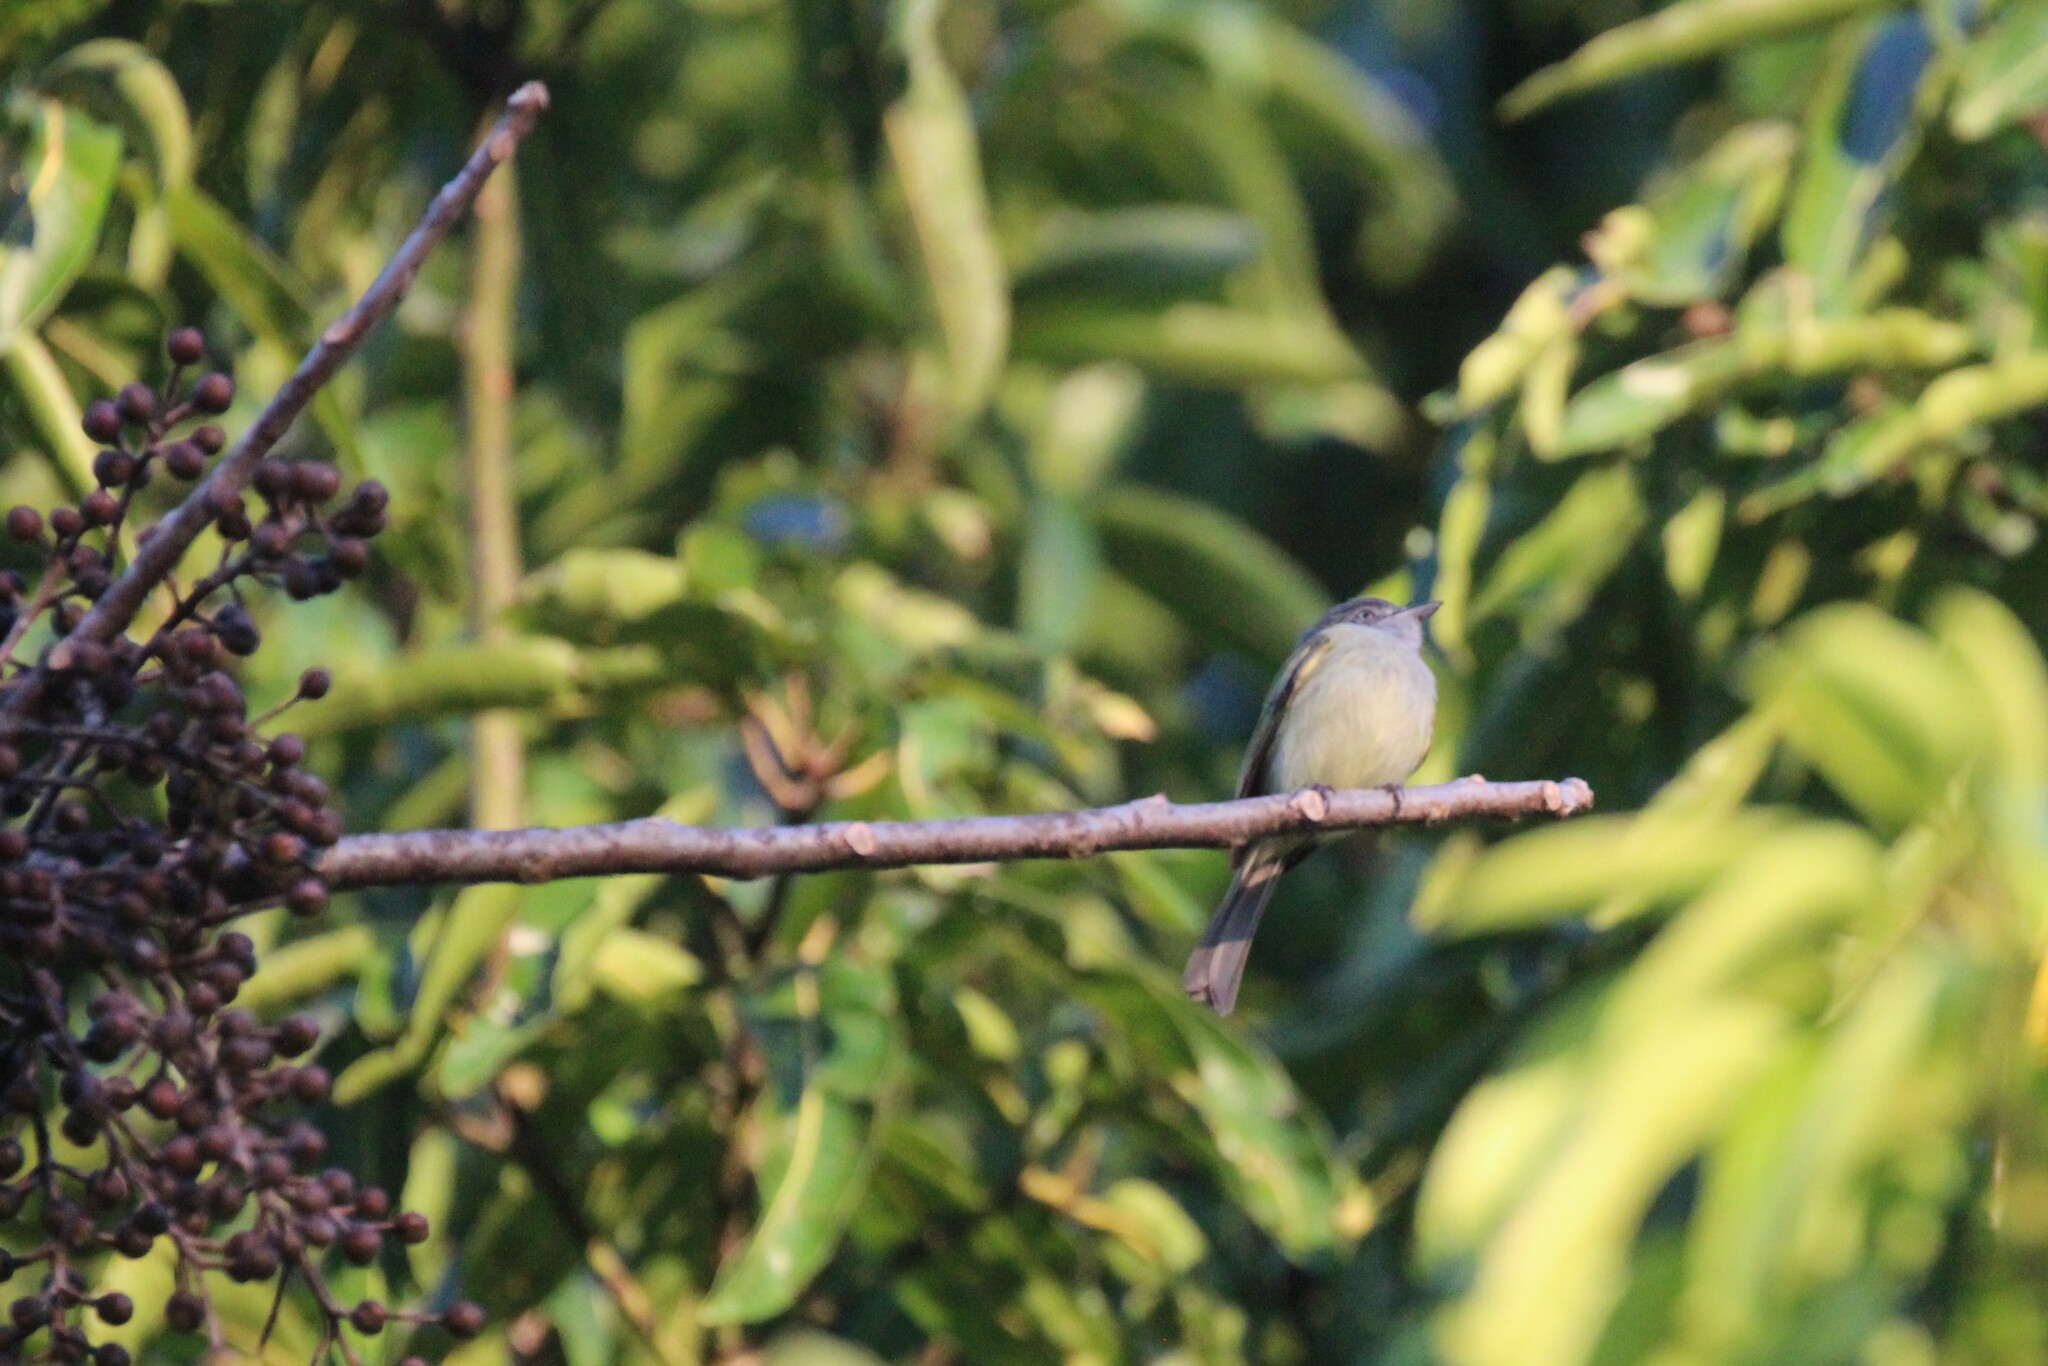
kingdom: Animalia
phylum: Chordata
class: Aves
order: Passeriformes
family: Tyrannidae
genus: Tolmomyias
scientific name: Tolmomyias sulphurescens
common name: Yellow-olive flycatcher
